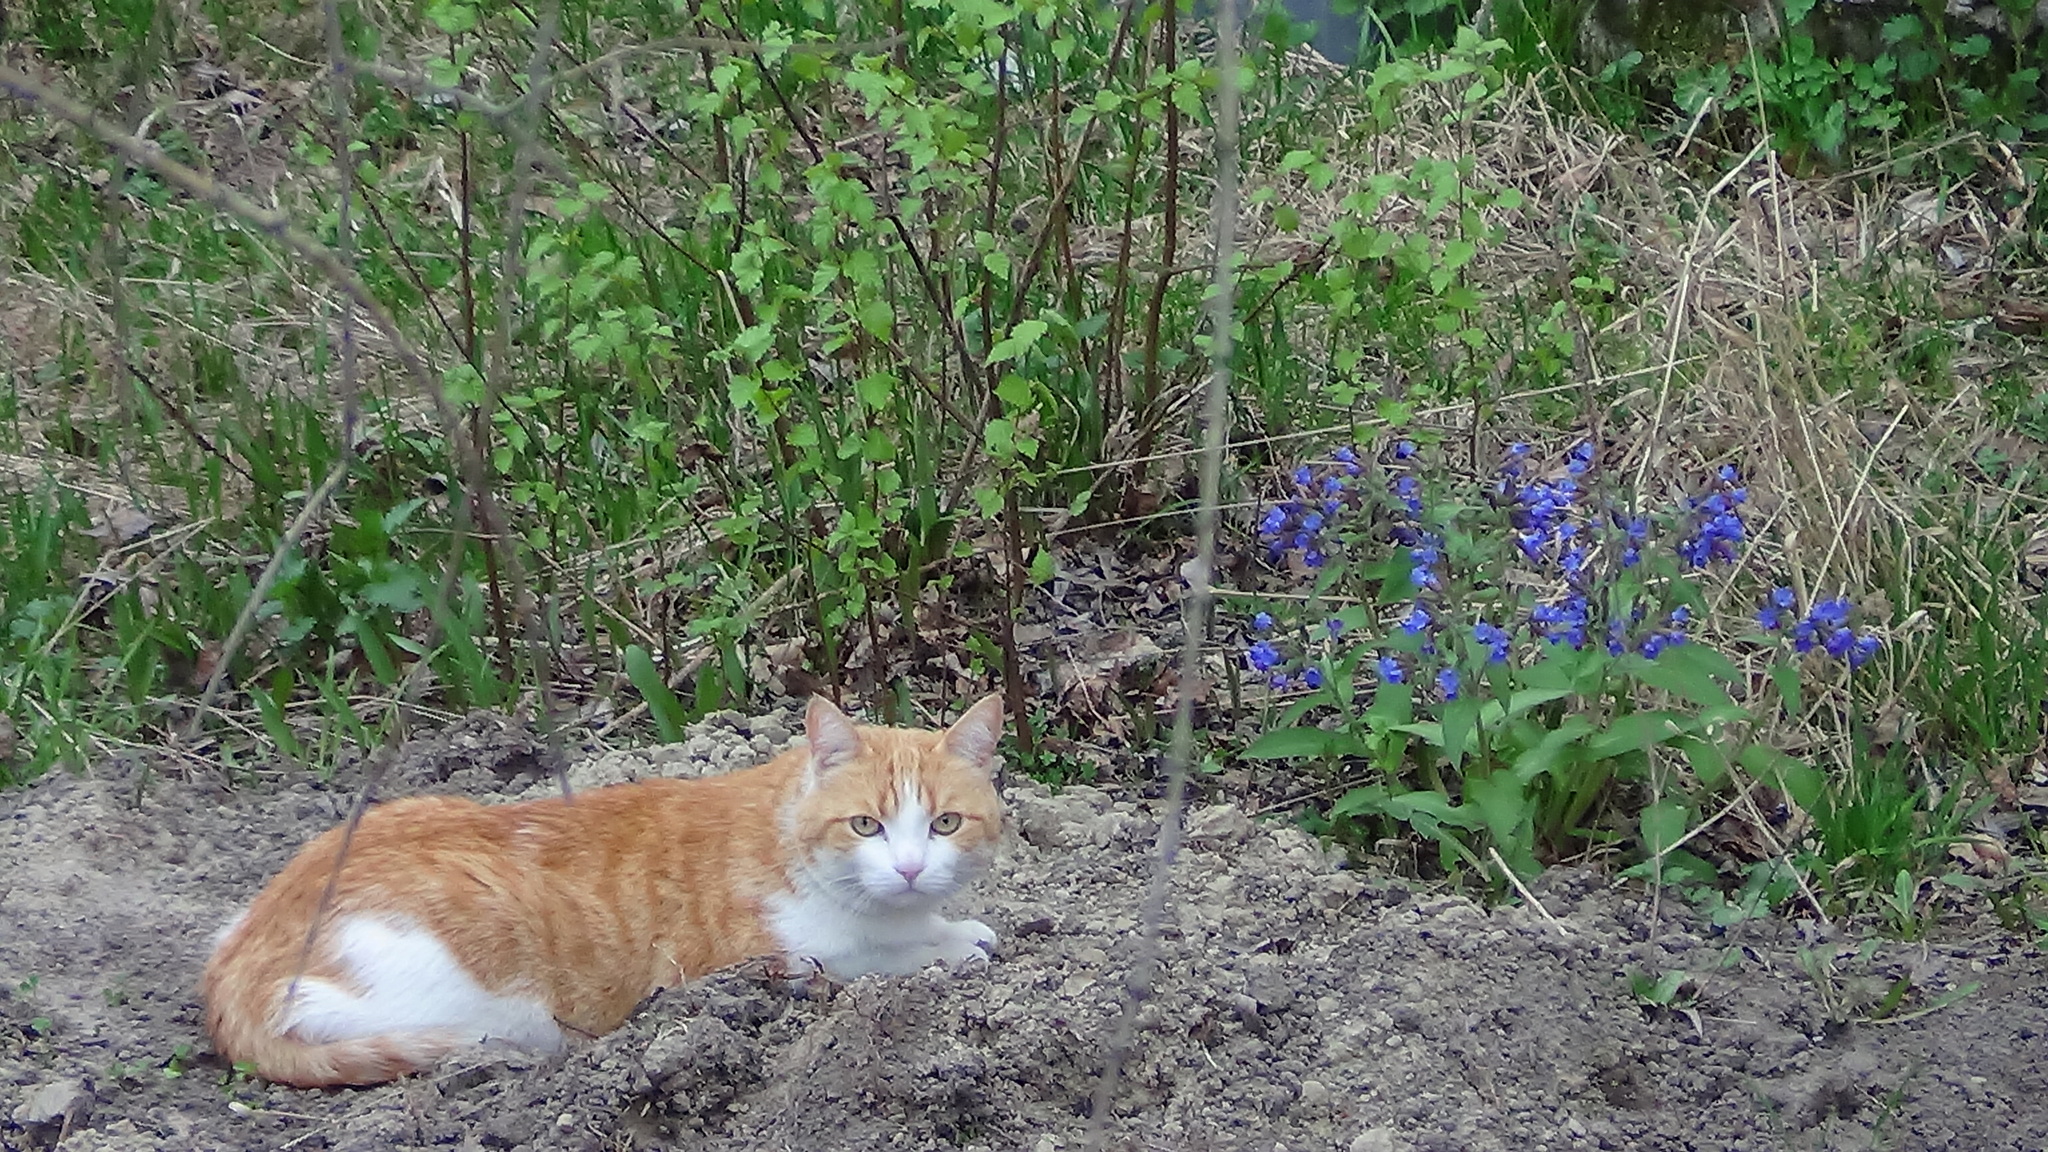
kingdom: Plantae
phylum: Tracheophyta
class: Magnoliopsida
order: Boraginales
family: Boraginaceae
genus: Pulmonaria
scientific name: Pulmonaria mollis
